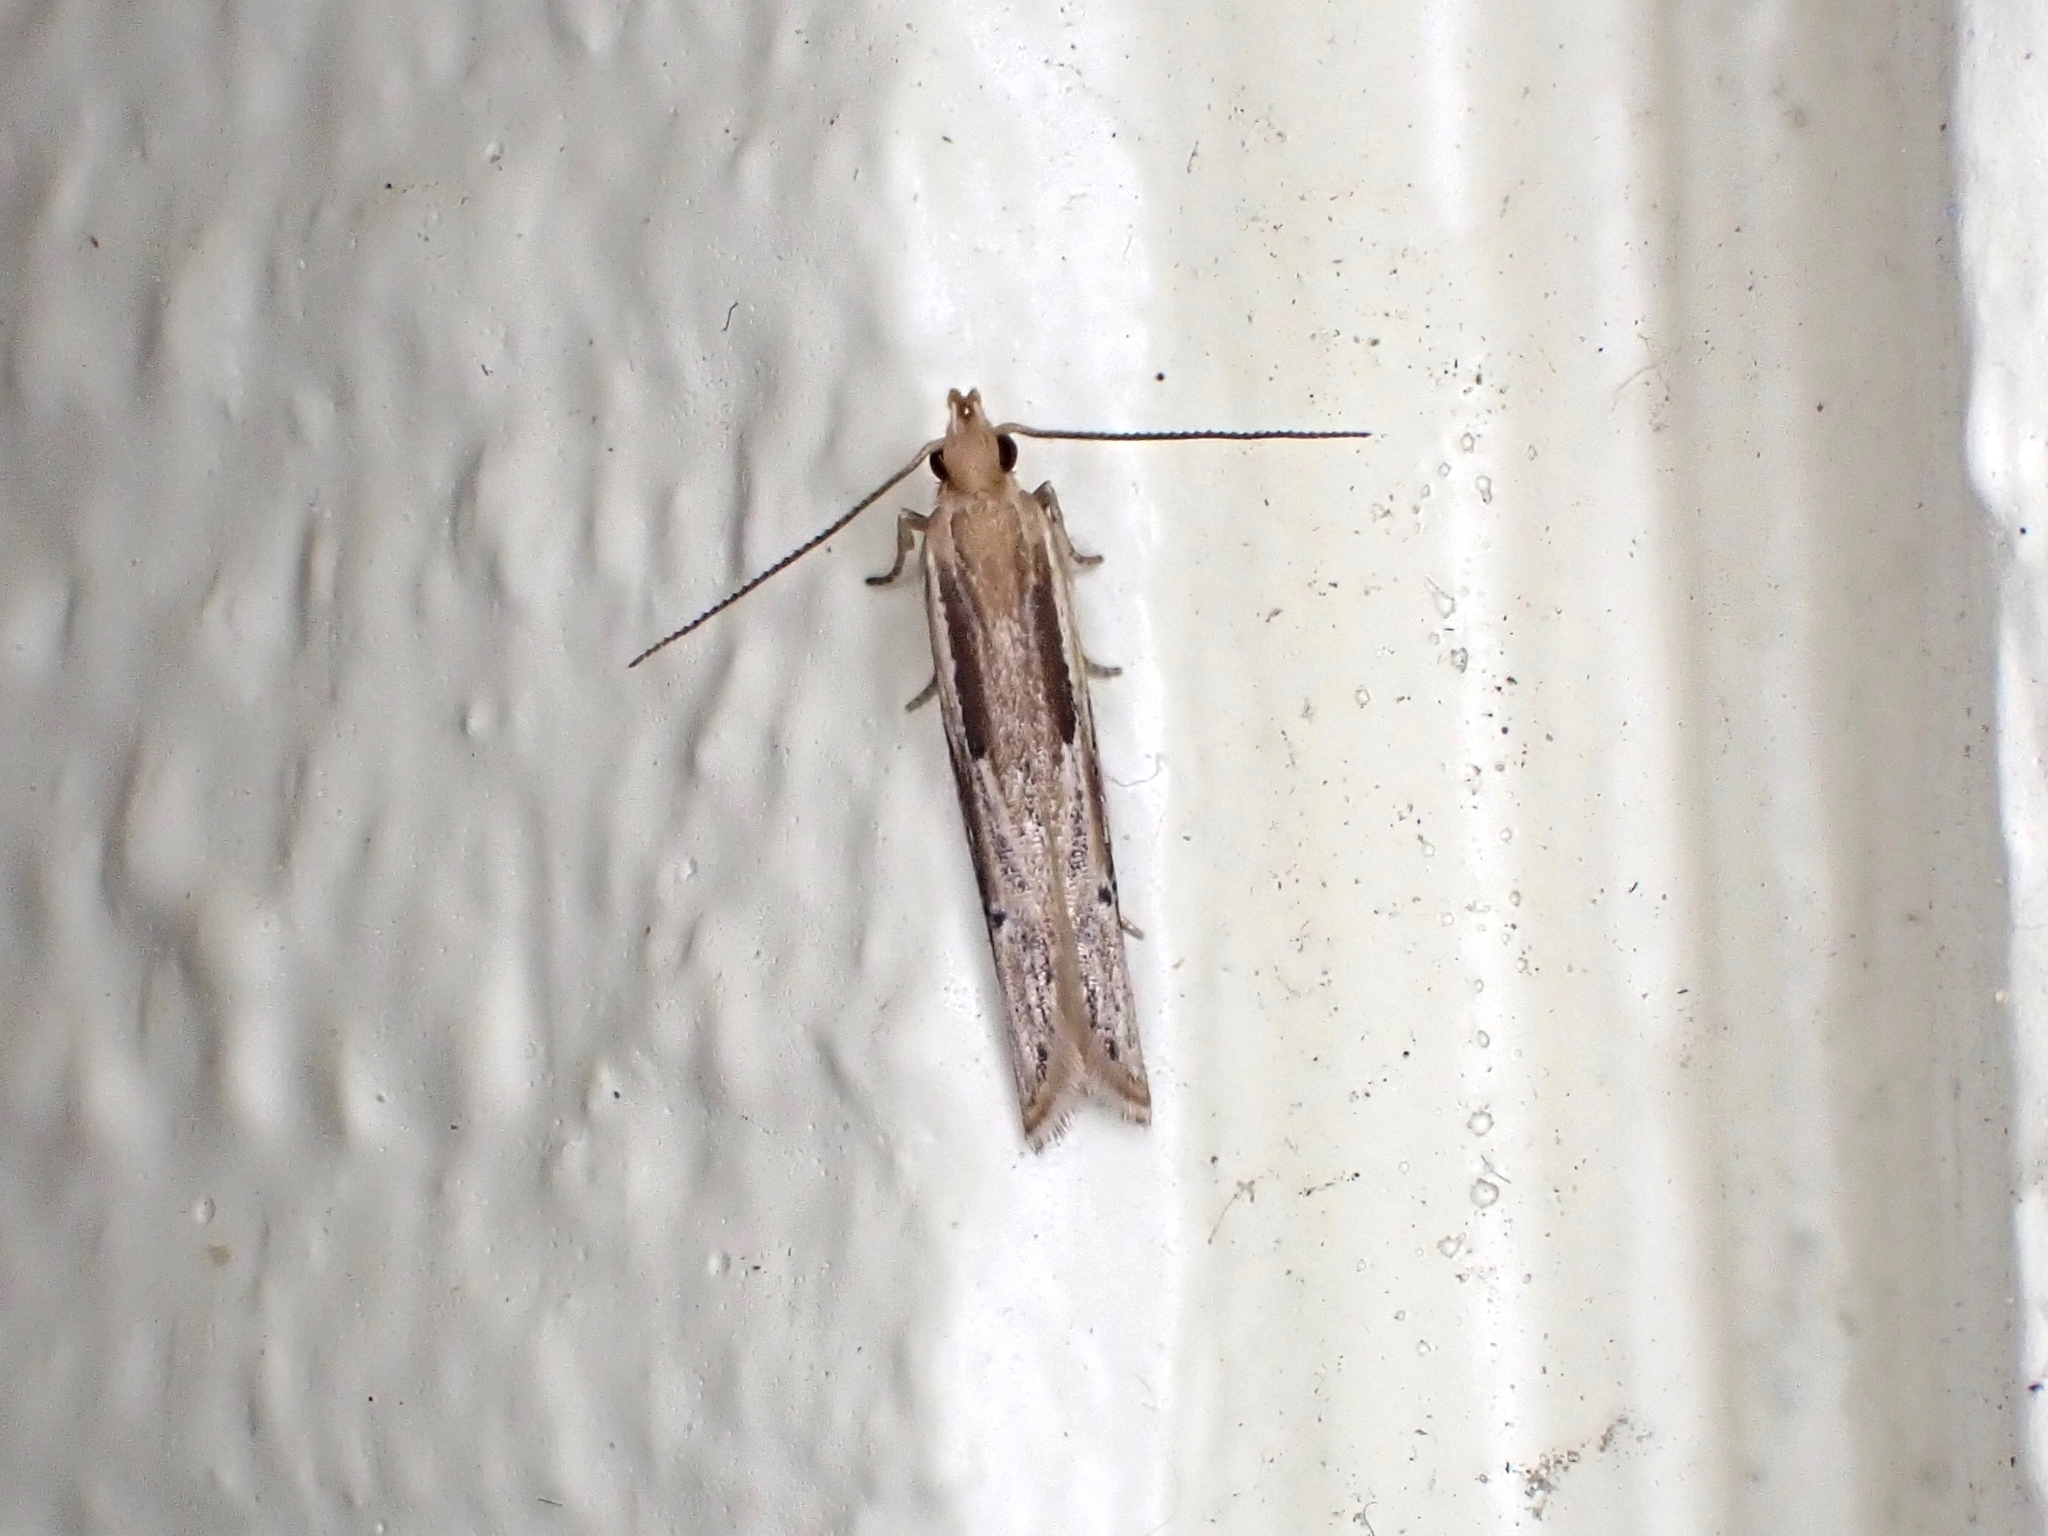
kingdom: Animalia
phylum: Arthropoda
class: Insecta
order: Lepidoptera
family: Depressariidae
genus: Eutorna
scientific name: Eutorna symmorpha
